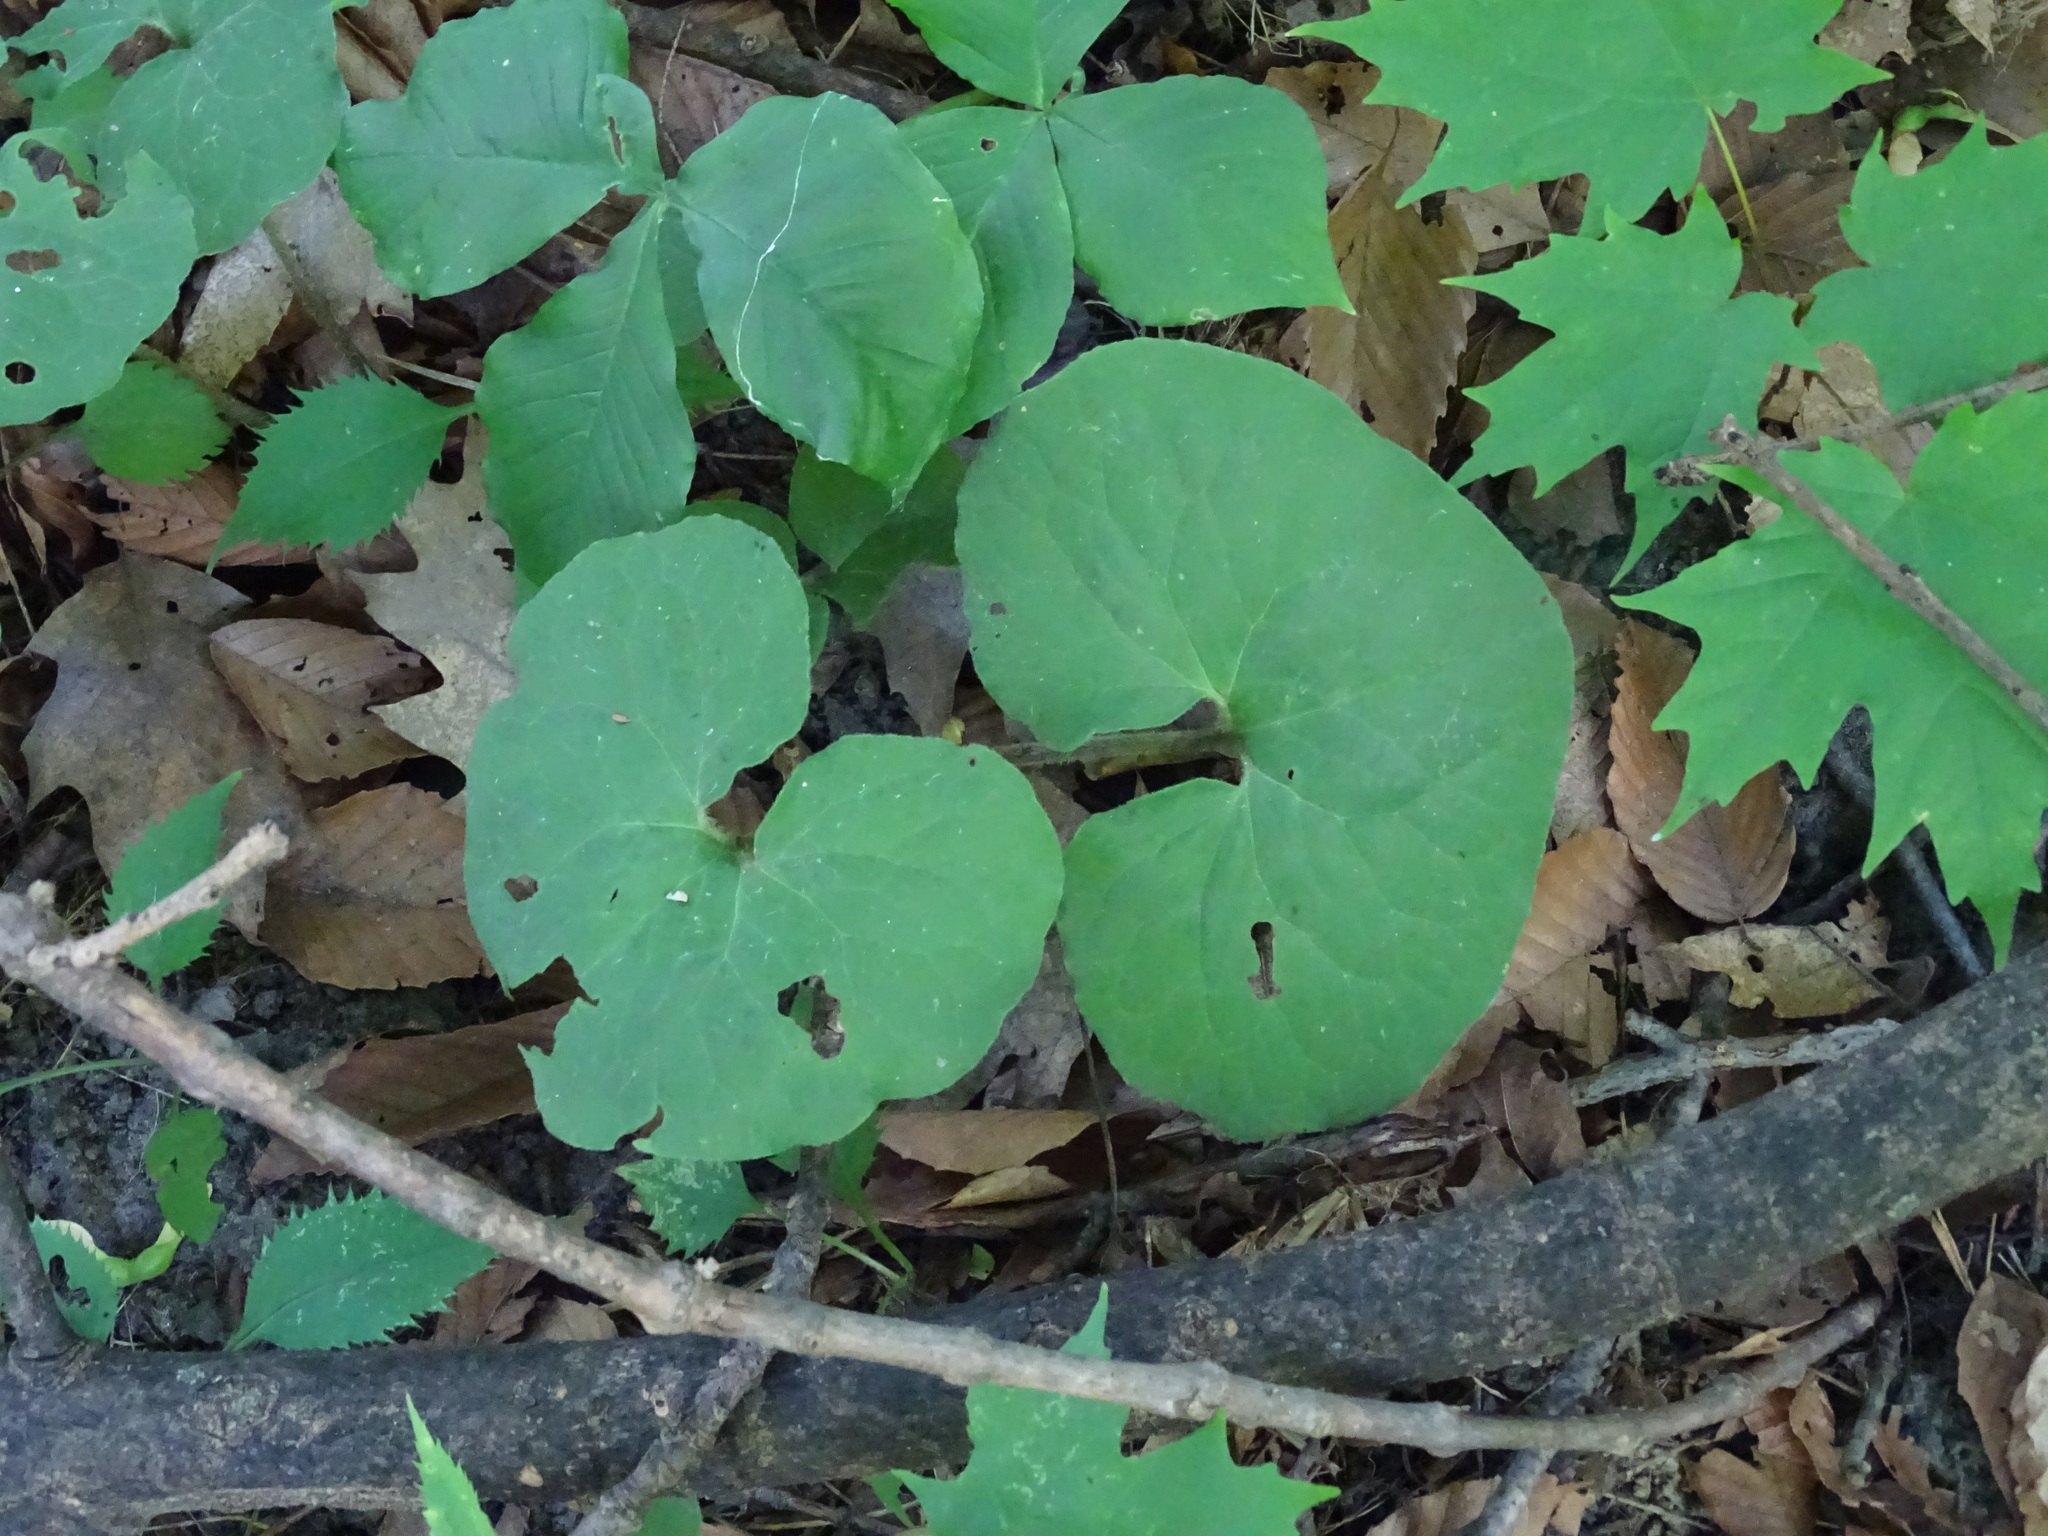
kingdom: Plantae
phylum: Tracheophyta
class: Magnoliopsida
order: Piperales
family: Aristolochiaceae
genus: Asarum
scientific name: Asarum canadense
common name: Wild ginger
